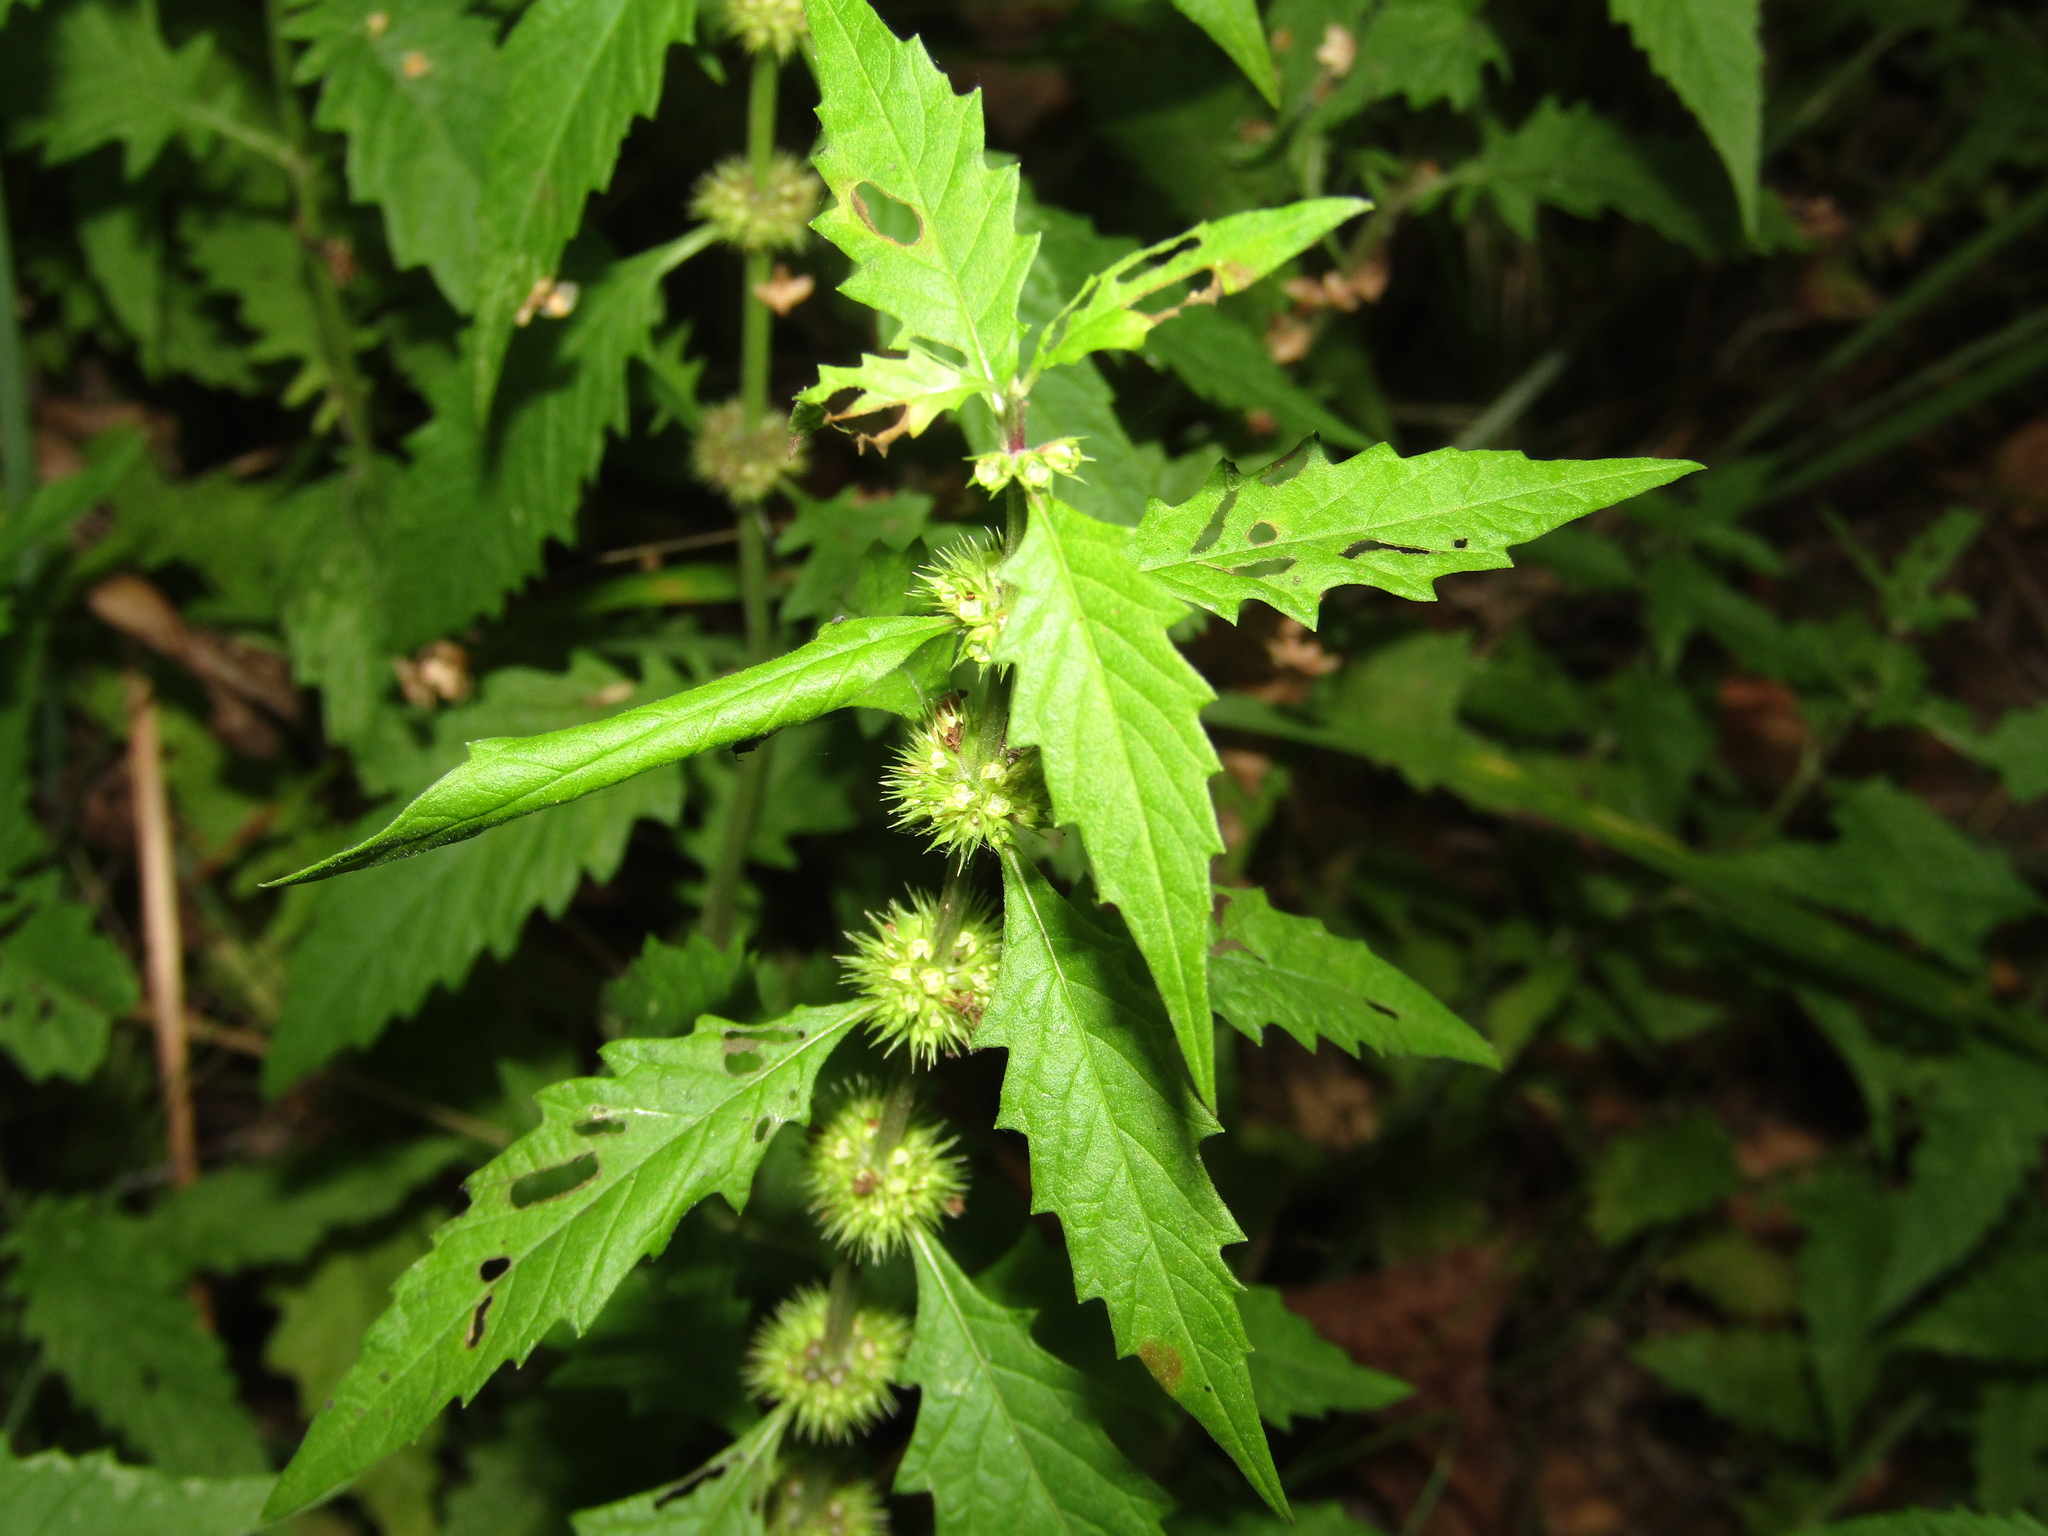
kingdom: Plantae
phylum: Tracheophyta
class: Magnoliopsida
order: Lamiales
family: Lamiaceae
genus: Lycopus
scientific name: Lycopus europaeus
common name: European bugleweed
